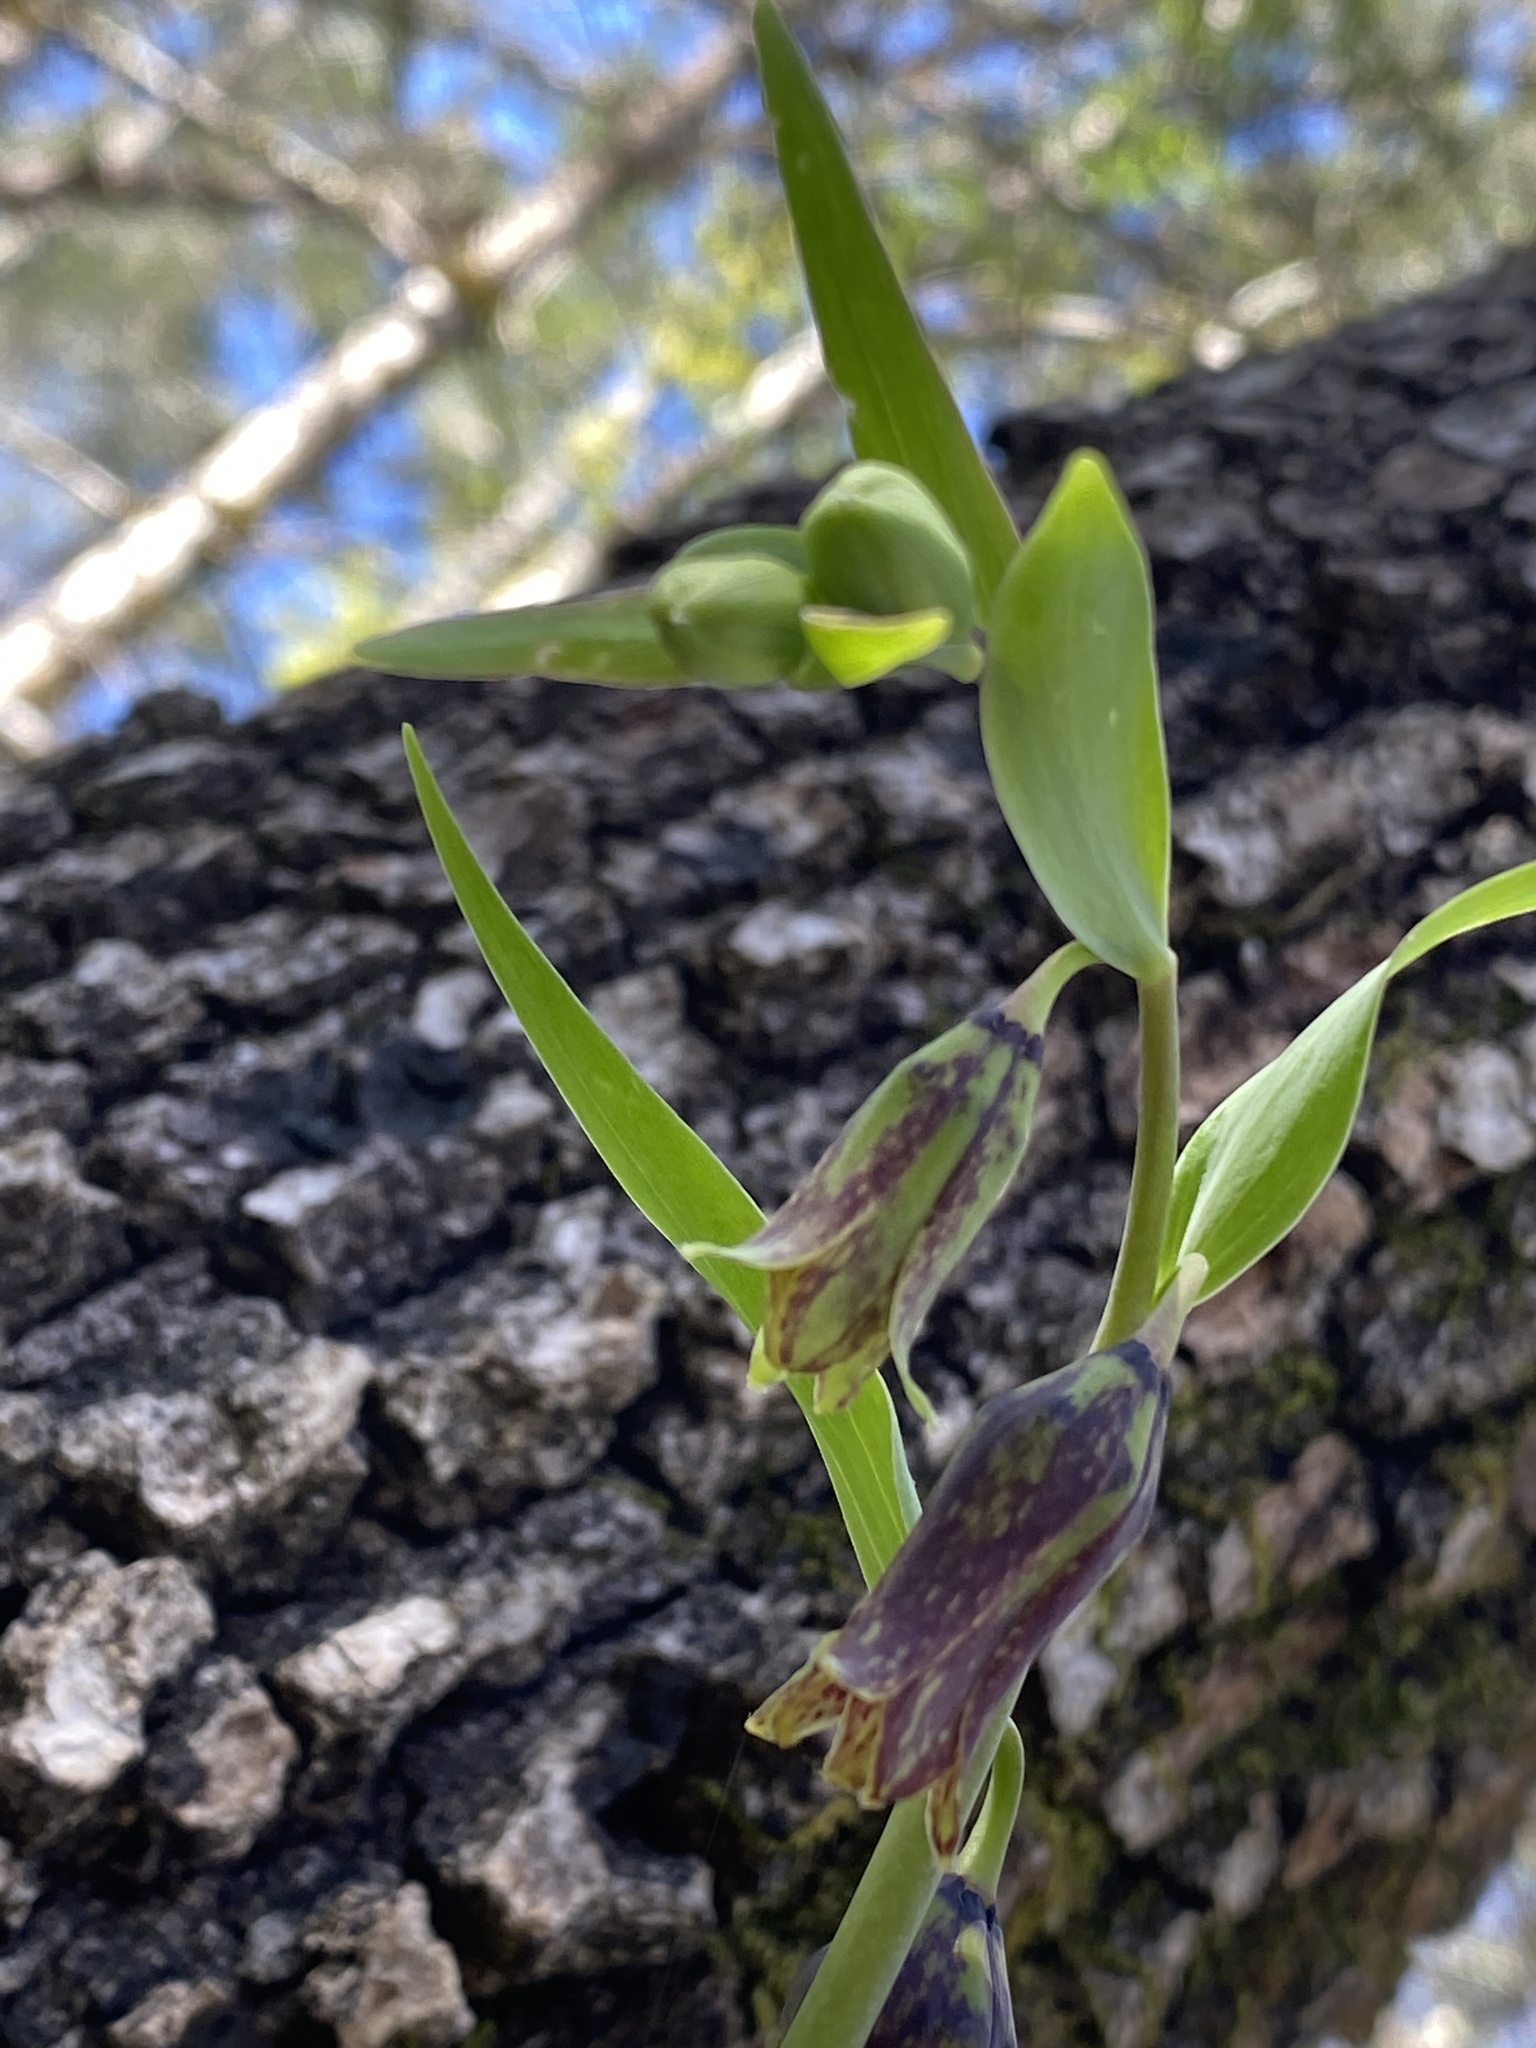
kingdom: Plantae
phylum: Tracheophyta
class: Liliopsida
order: Liliales
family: Liliaceae
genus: Fritillaria
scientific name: Fritillaria affinis
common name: Ojai fritillary
